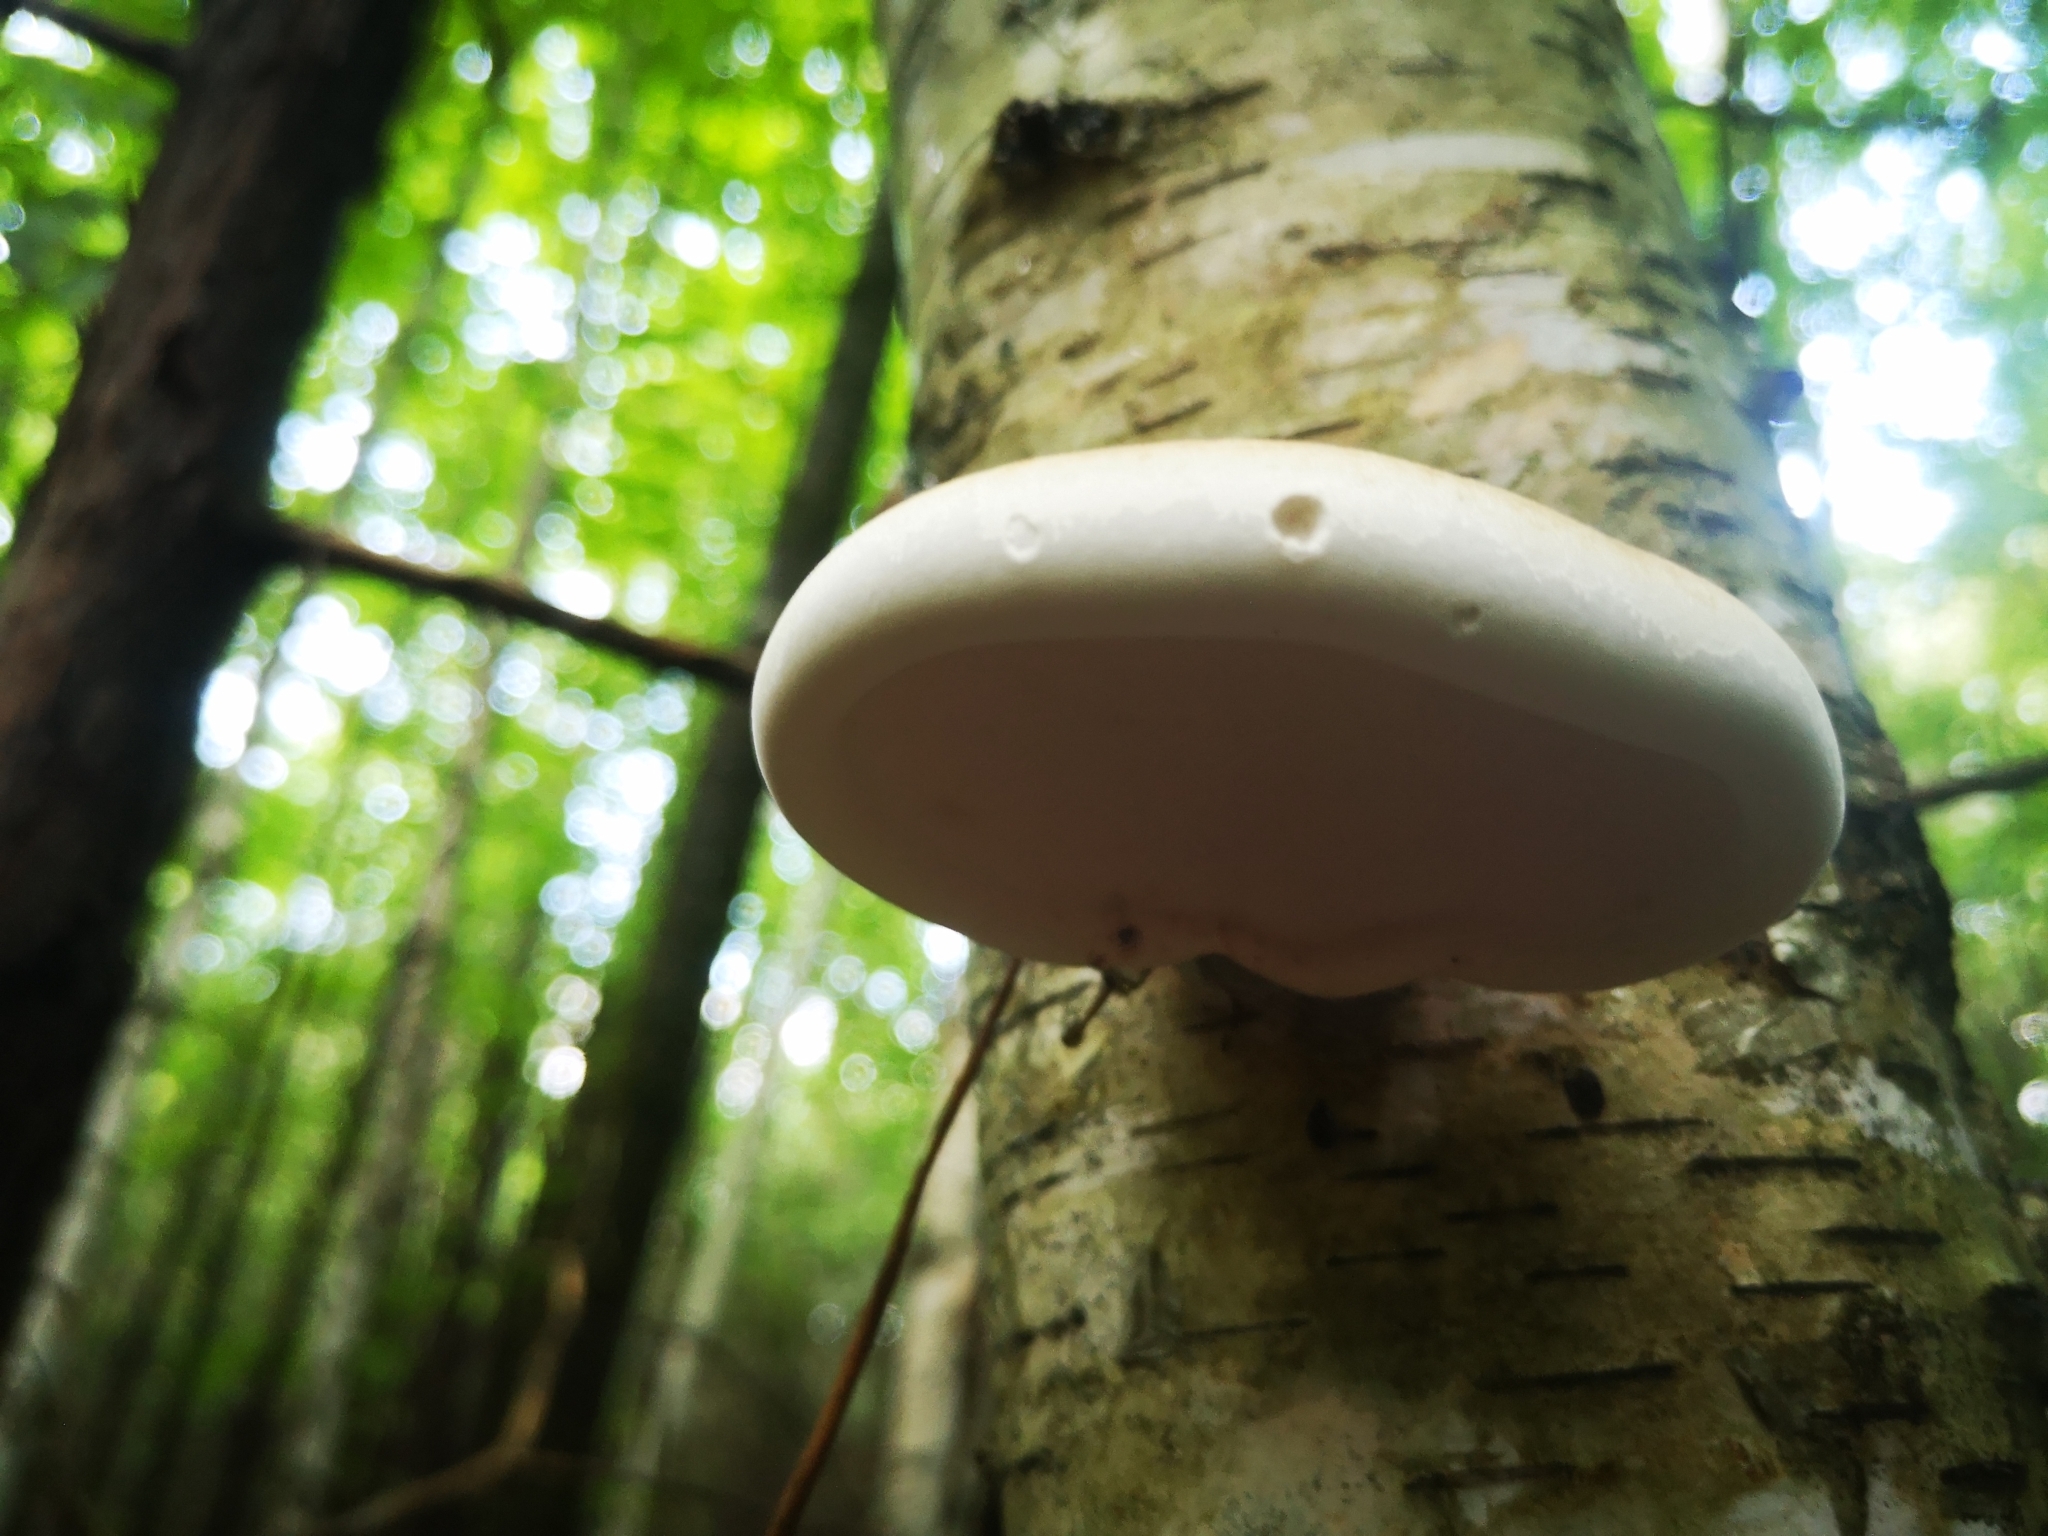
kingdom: Fungi
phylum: Basidiomycota
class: Agaricomycetes
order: Polyporales
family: Fomitopsidaceae
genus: Fomitopsis
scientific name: Fomitopsis betulina
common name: Birch polypore
